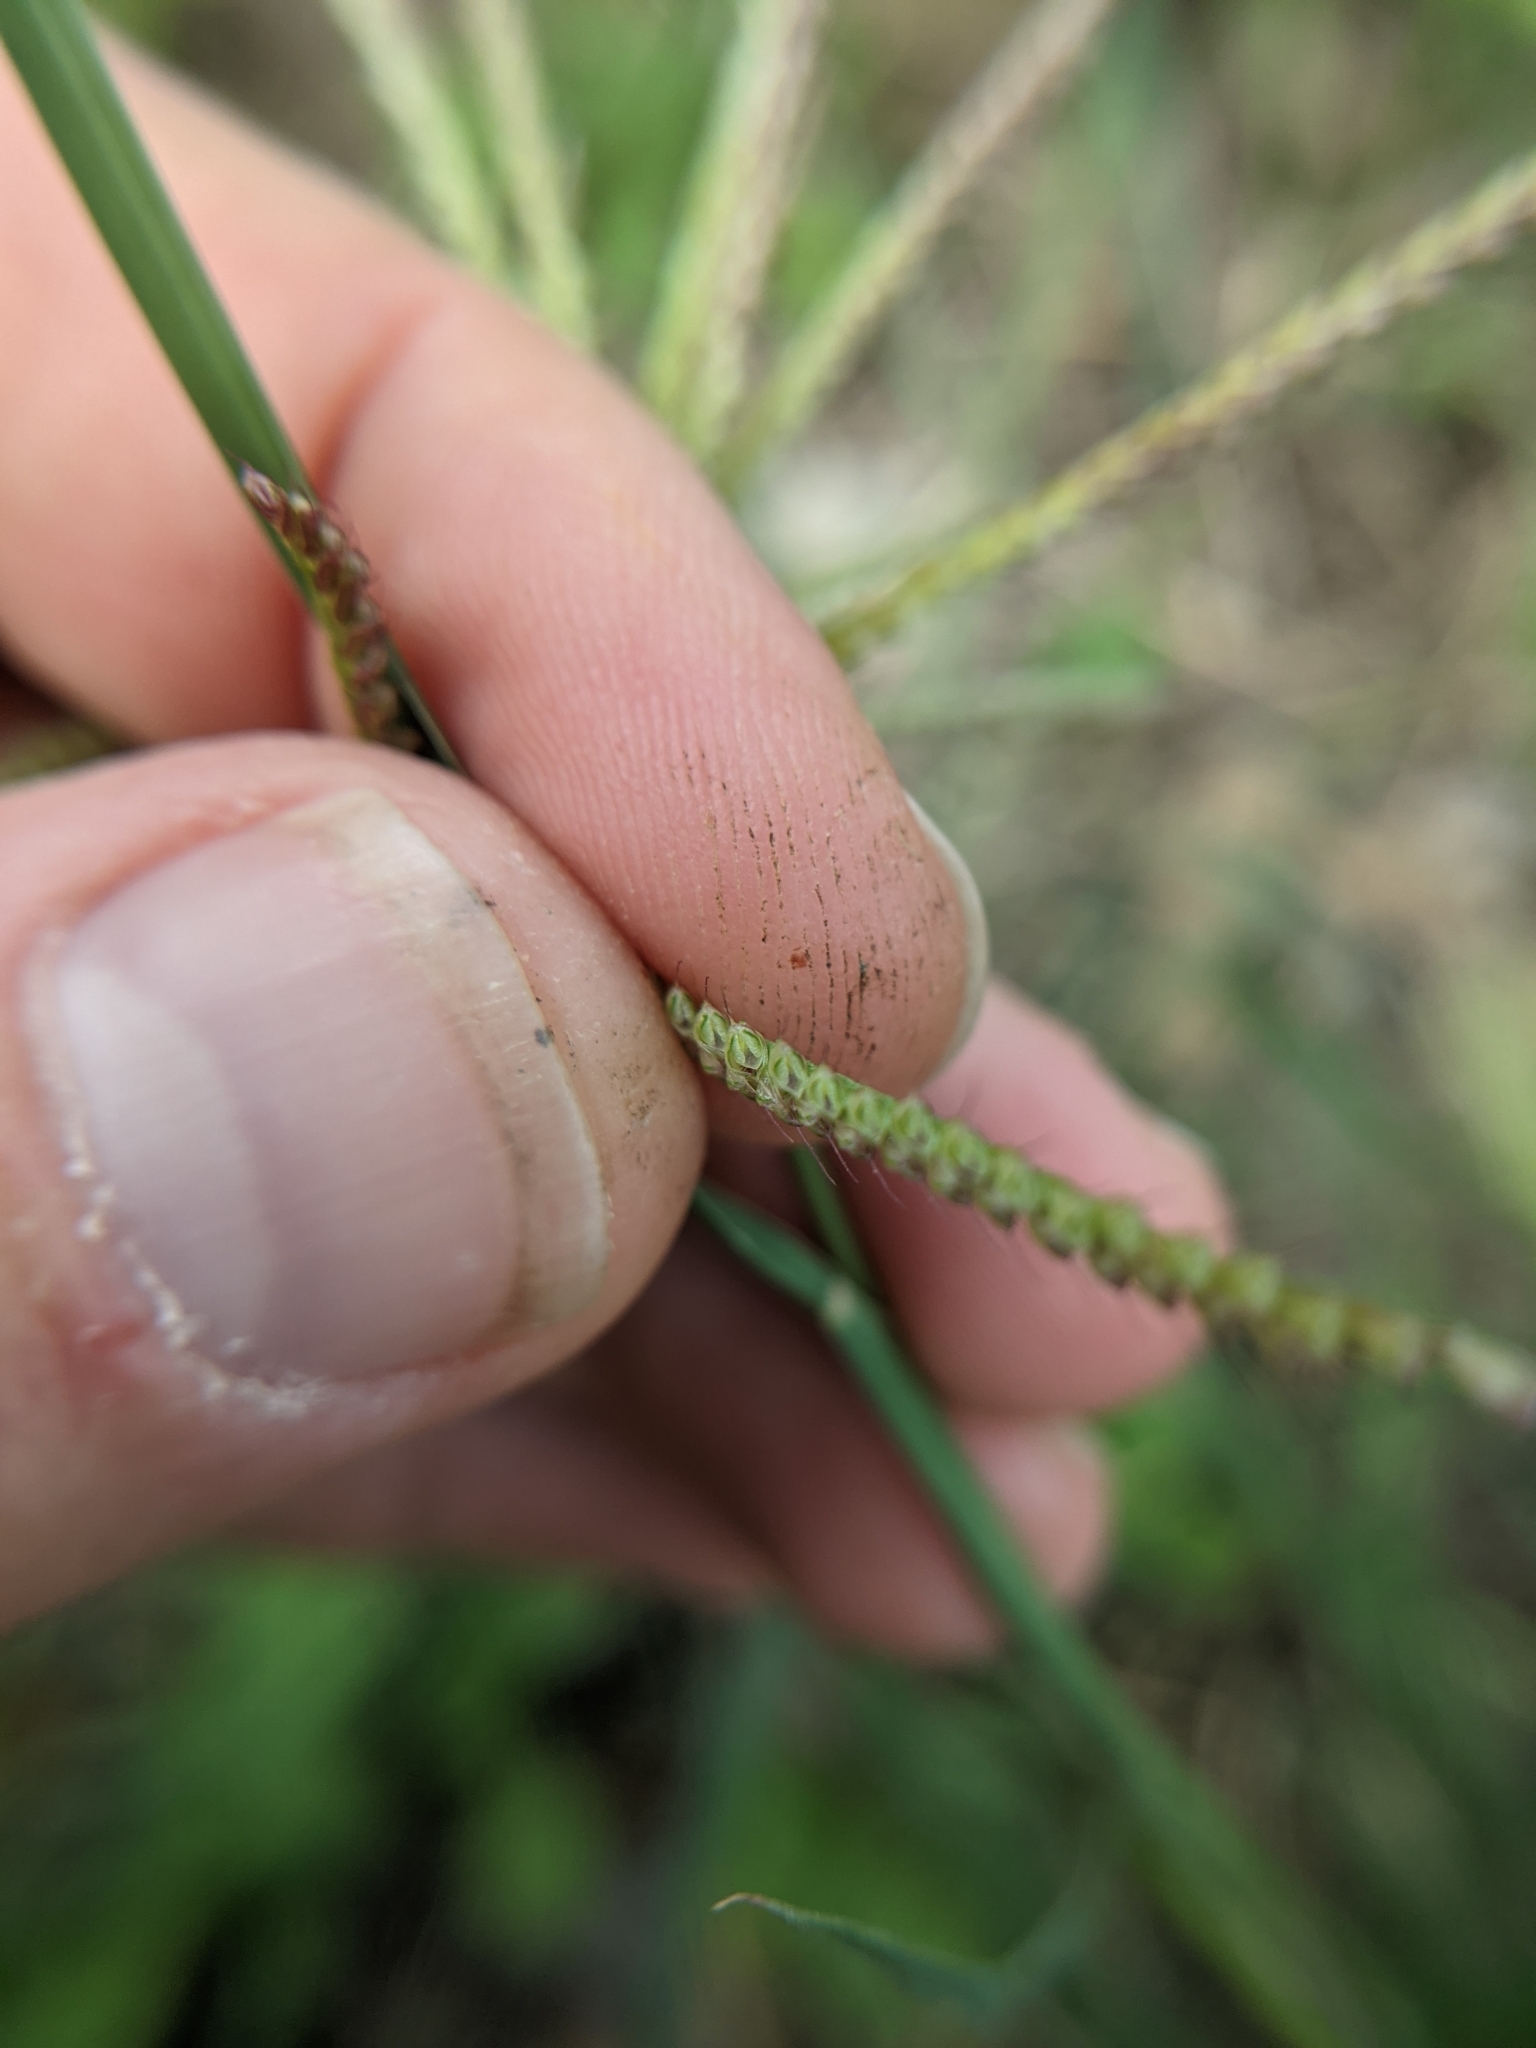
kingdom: Plantae
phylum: Tracheophyta
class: Liliopsida
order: Poales
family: Poaceae
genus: Chloris
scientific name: Chloris subdolichostachya
